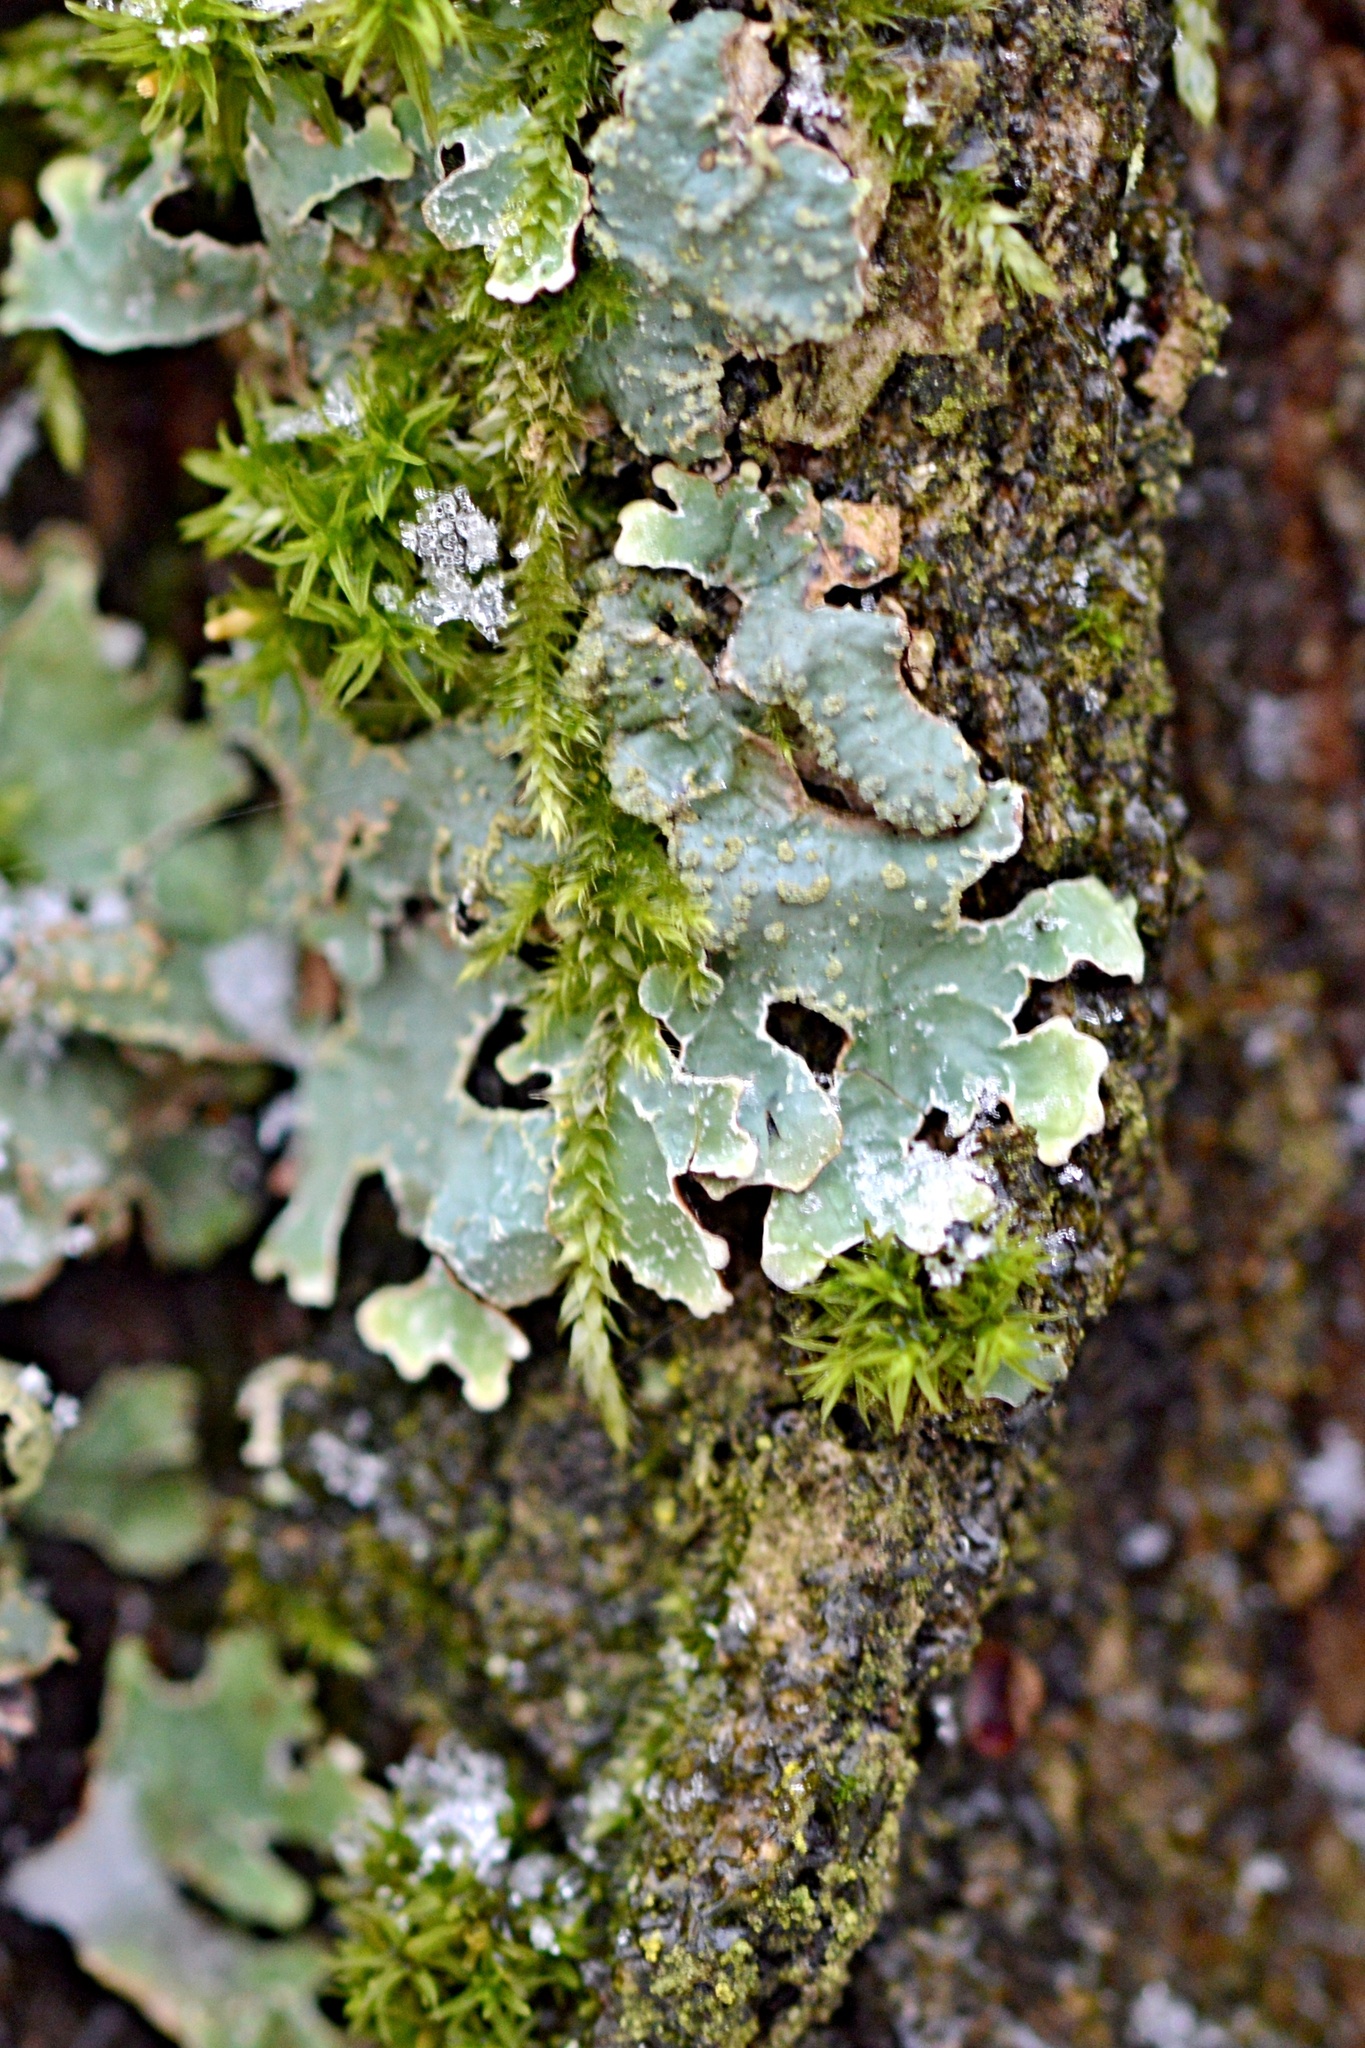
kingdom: Fungi
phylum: Ascomycota
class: Lecanoromycetes
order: Lecanorales
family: Parmeliaceae
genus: Parmelia
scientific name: Parmelia sulcata
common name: Netted shield lichen
